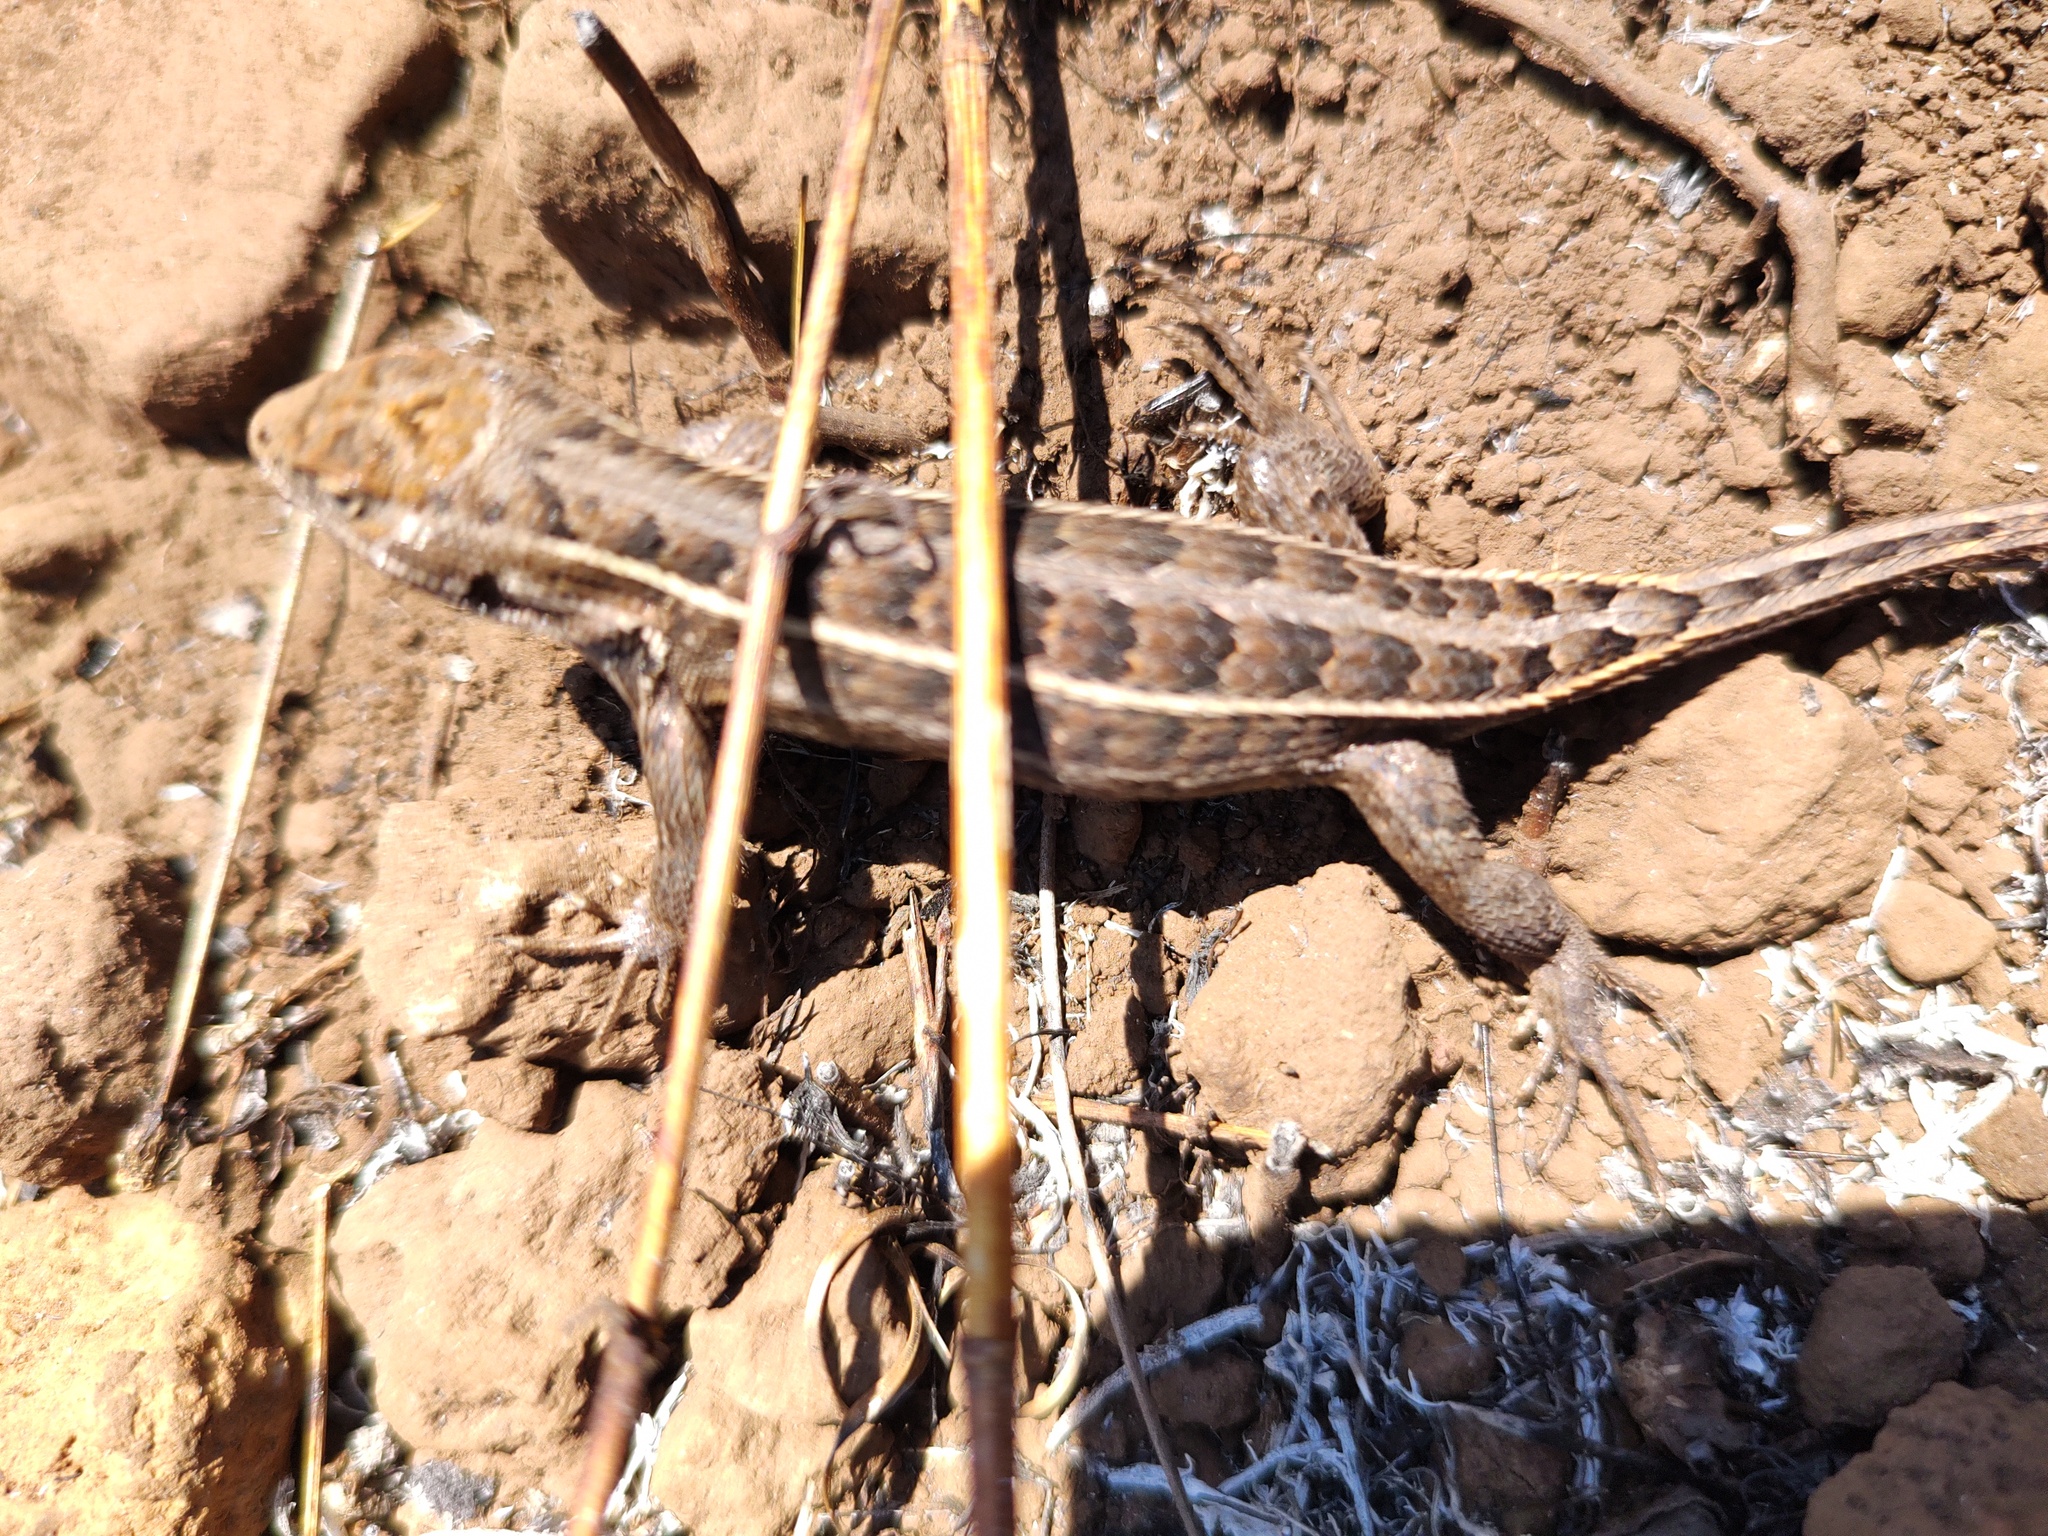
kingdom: Animalia
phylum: Chordata
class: Squamata
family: Phrynosomatidae
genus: Sceloporus
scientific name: Sceloporus scalaris
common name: Brown’s bunchgrass lizard [brownorum]
